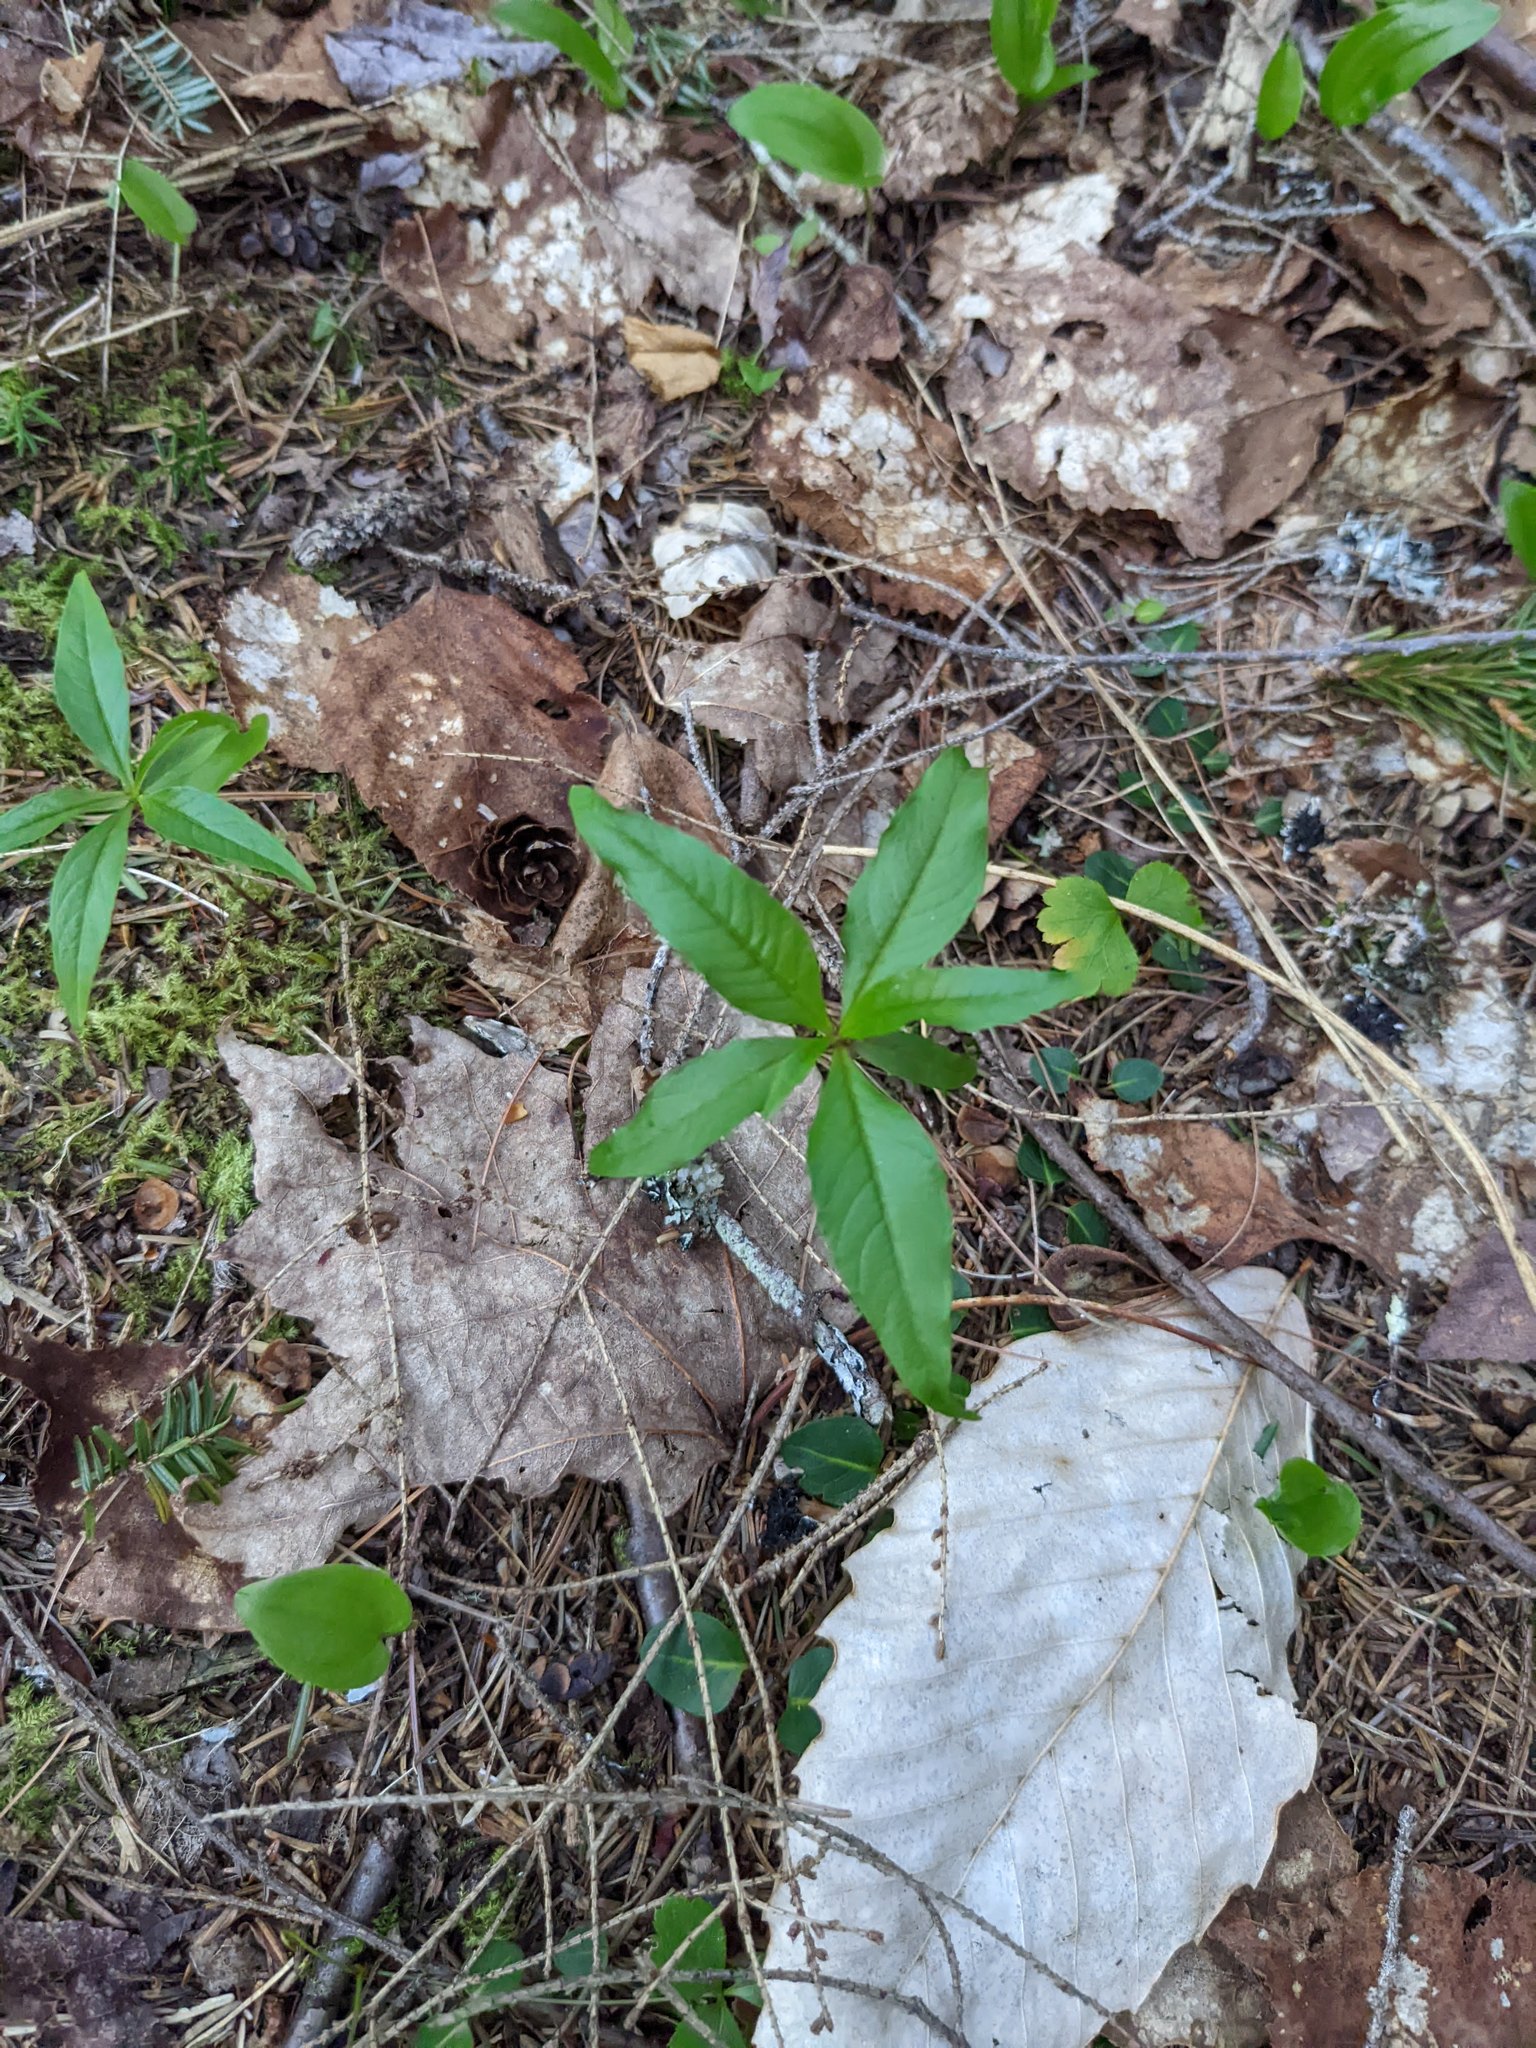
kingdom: Plantae
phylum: Tracheophyta
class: Magnoliopsida
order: Ericales
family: Primulaceae
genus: Lysimachia
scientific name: Lysimachia borealis
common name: American starflower
